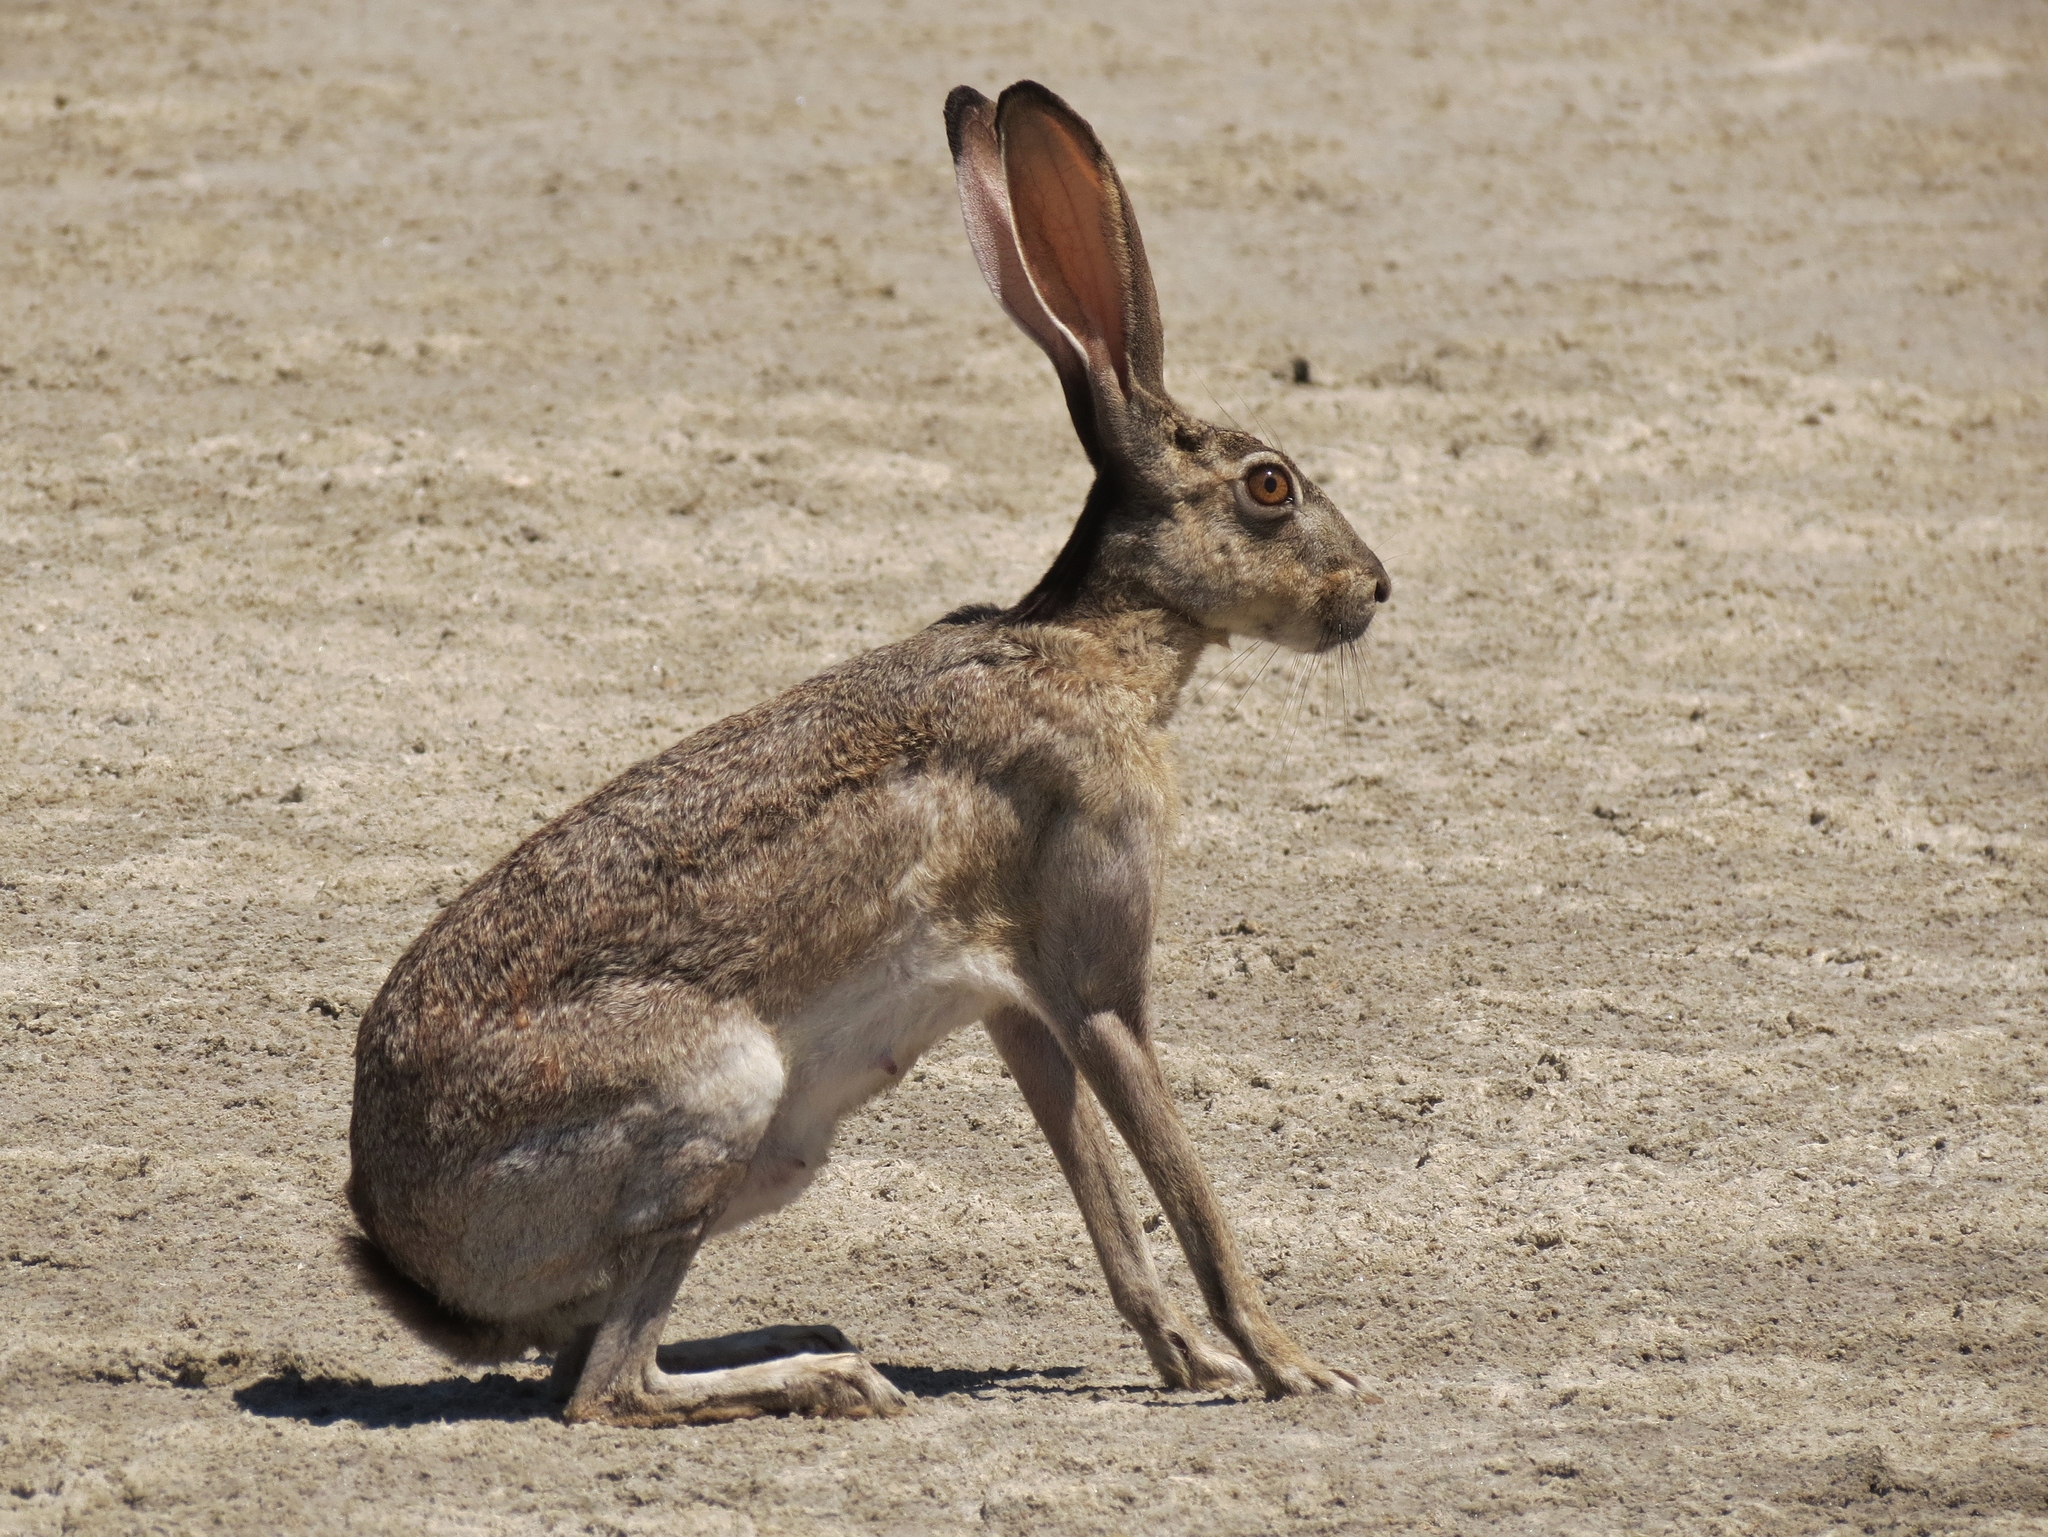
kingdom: Animalia
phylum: Chordata
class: Mammalia
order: Lagomorpha
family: Leporidae
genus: Lepus
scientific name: Lepus californicus
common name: Black-tailed jackrabbit
